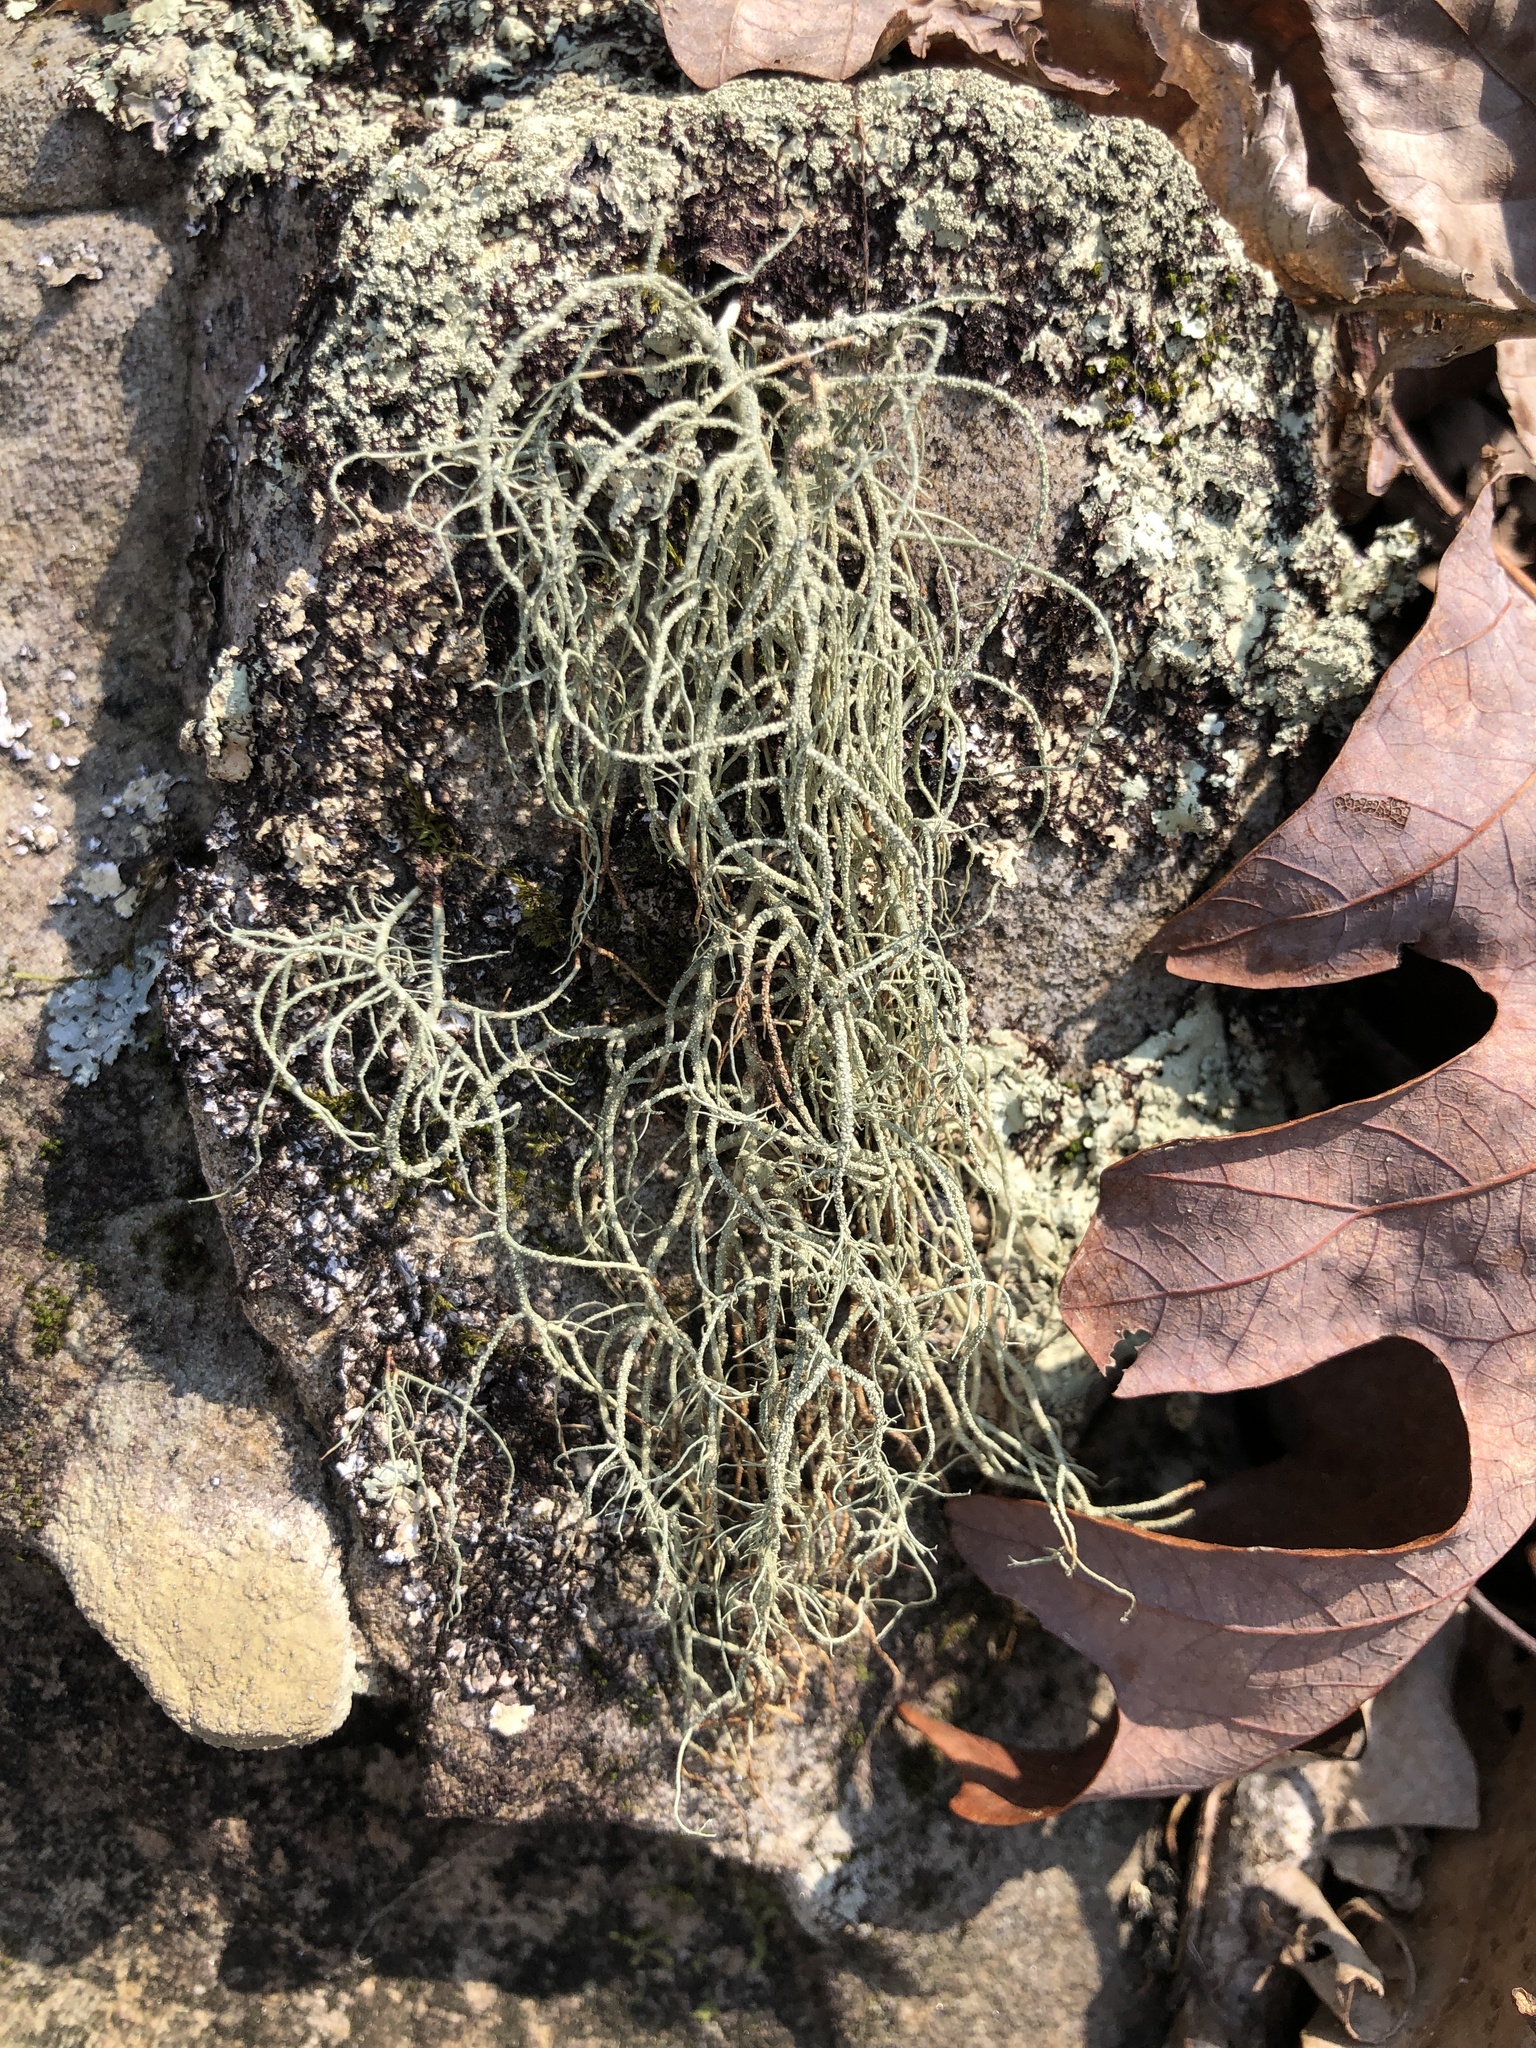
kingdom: Fungi
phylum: Ascomycota
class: Lecanoromycetes
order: Lecanorales
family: Parmeliaceae
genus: Usnea
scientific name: Usnea mutabilis
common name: Bloody beard
